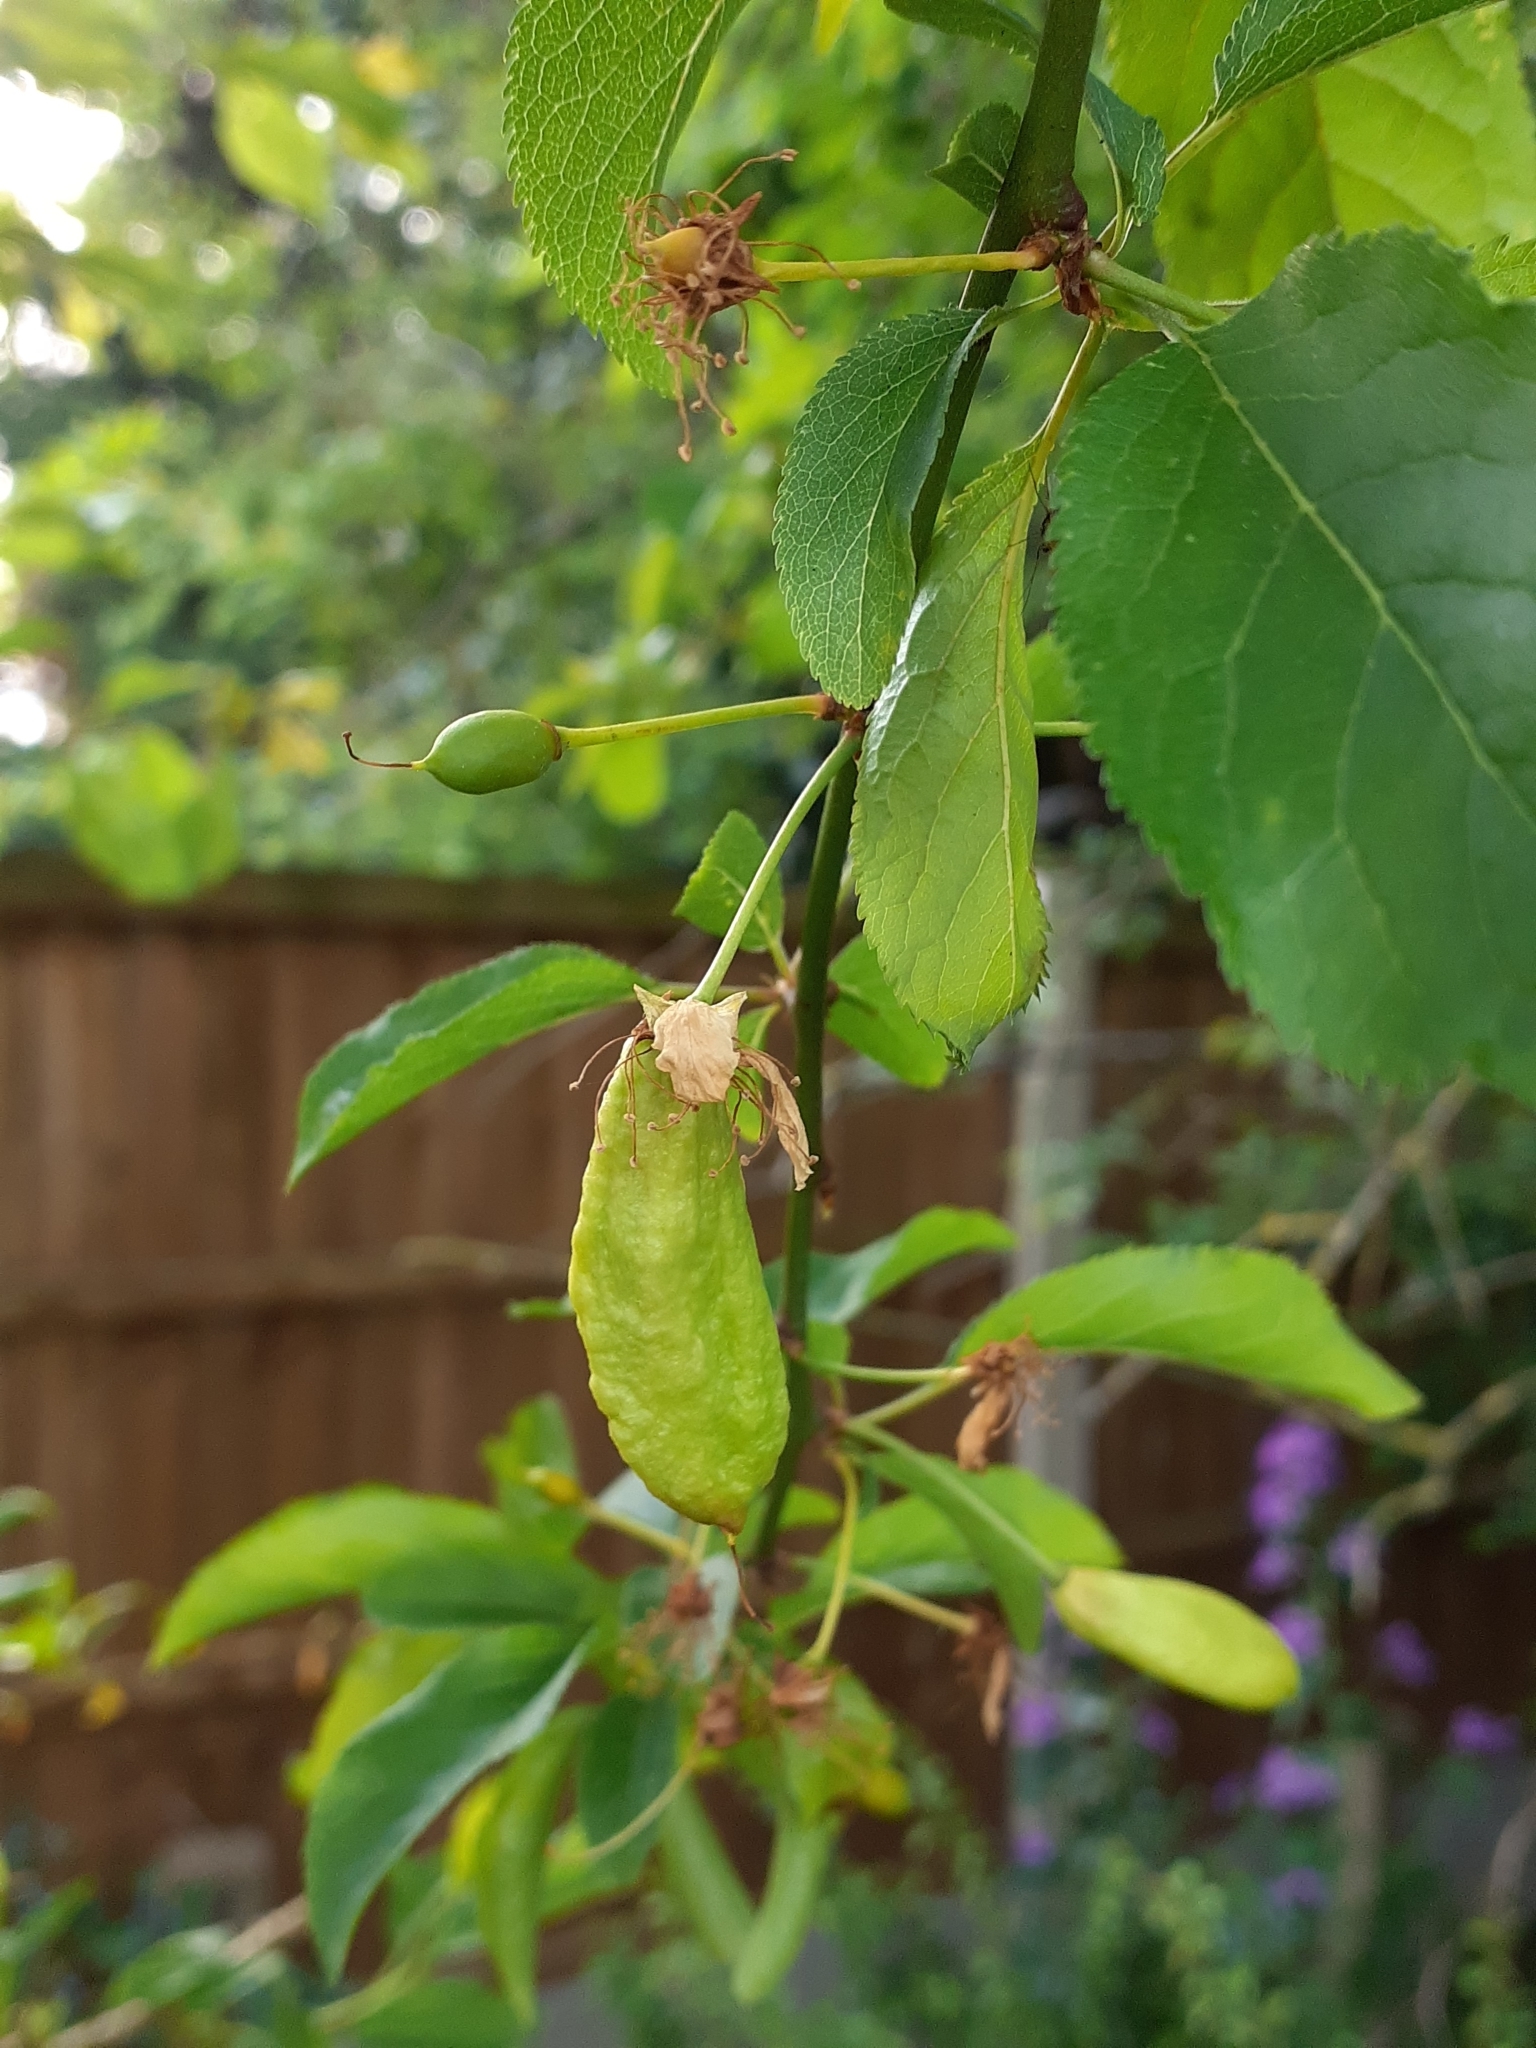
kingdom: Fungi
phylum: Ascomycota
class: Taphrinomycetes
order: Taphrinales
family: Taphrinaceae
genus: Taphrina
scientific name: Taphrina pruni
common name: Pocket plum
